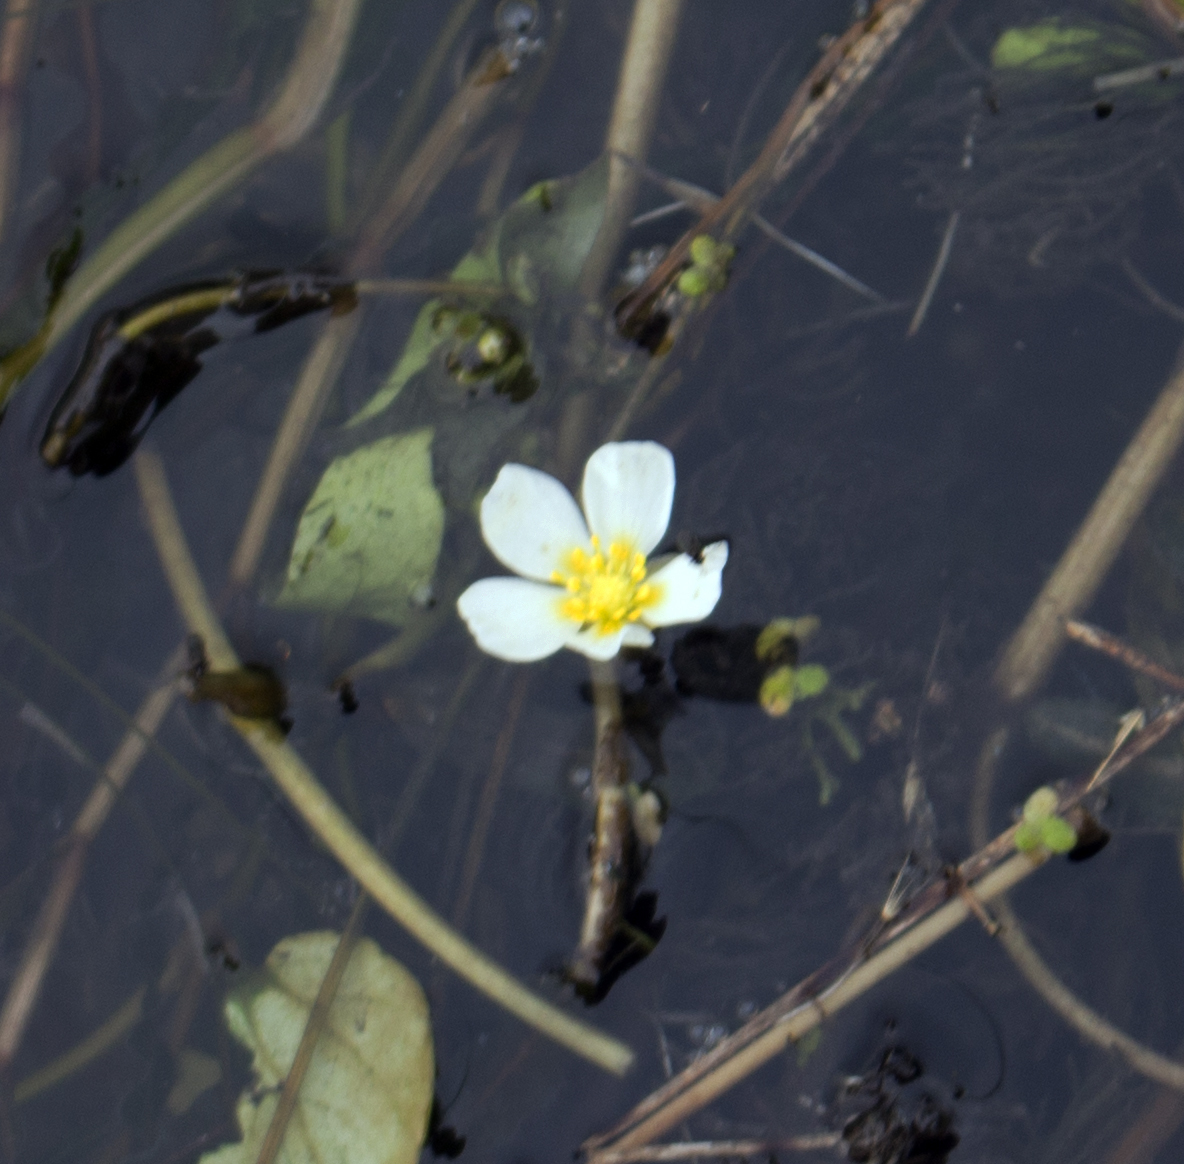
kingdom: Plantae
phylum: Tracheophyta
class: Magnoliopsida
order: Ranunculales
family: Ranunculaceae
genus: Ranunculus
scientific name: Ranunculus aquatilis
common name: Common water-crowfoot
